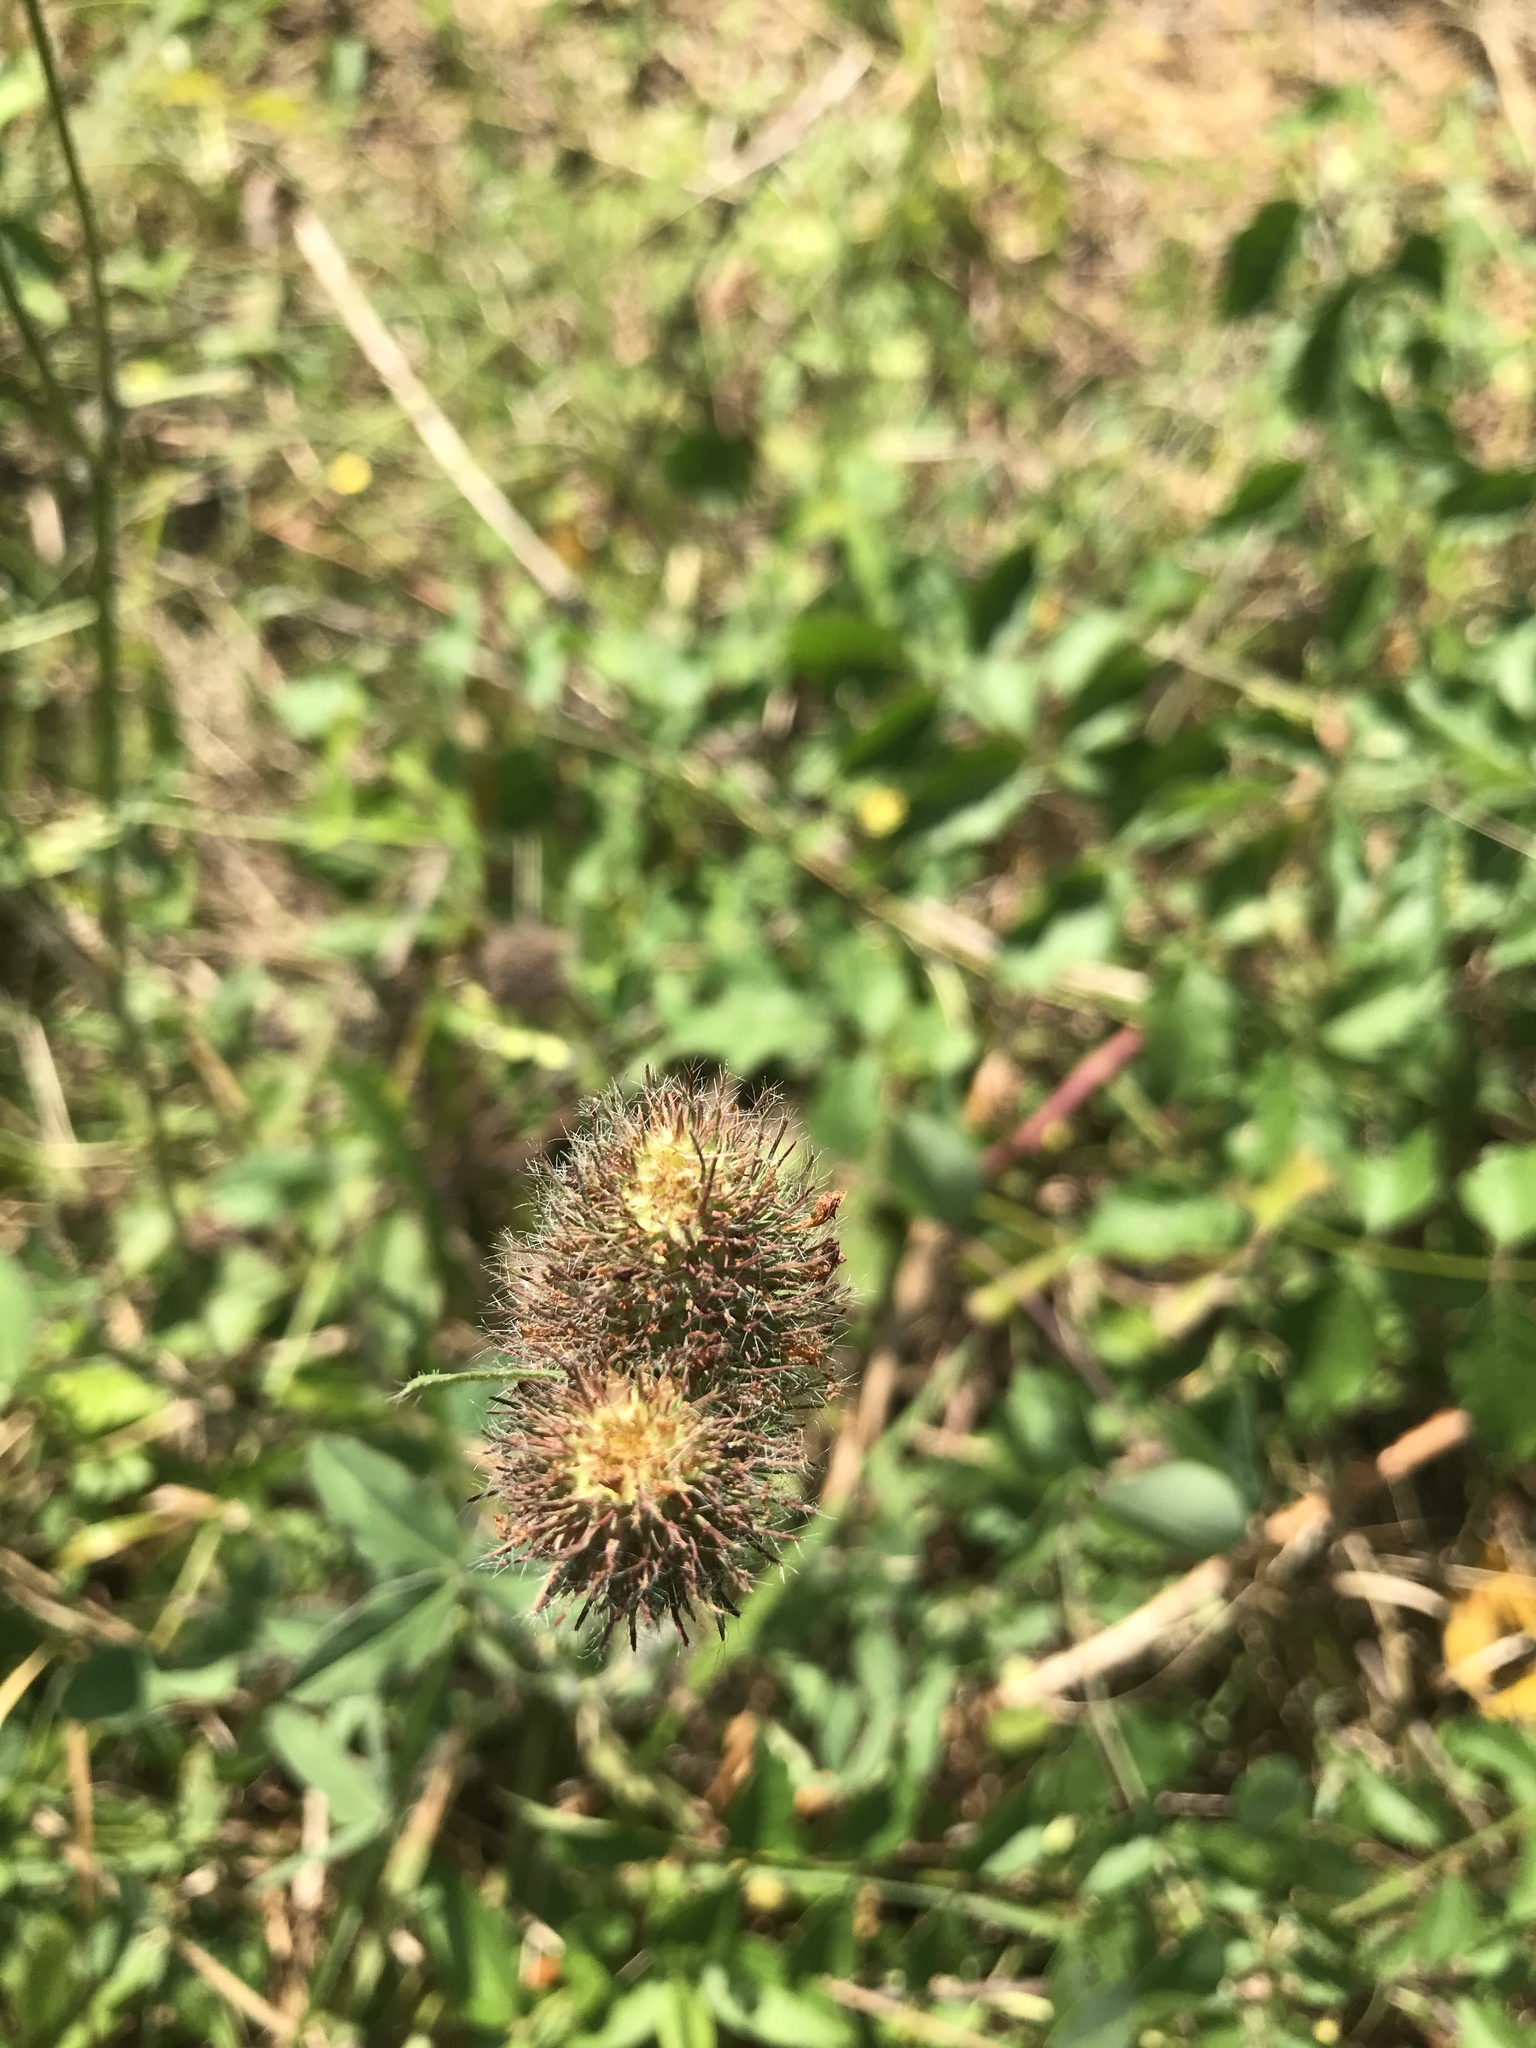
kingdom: Plantae
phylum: Tracheophyta
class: Magnoliopsida
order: Fabales
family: Fabaceae
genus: Trifolium
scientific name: Trifolium pratense
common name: Red clover
